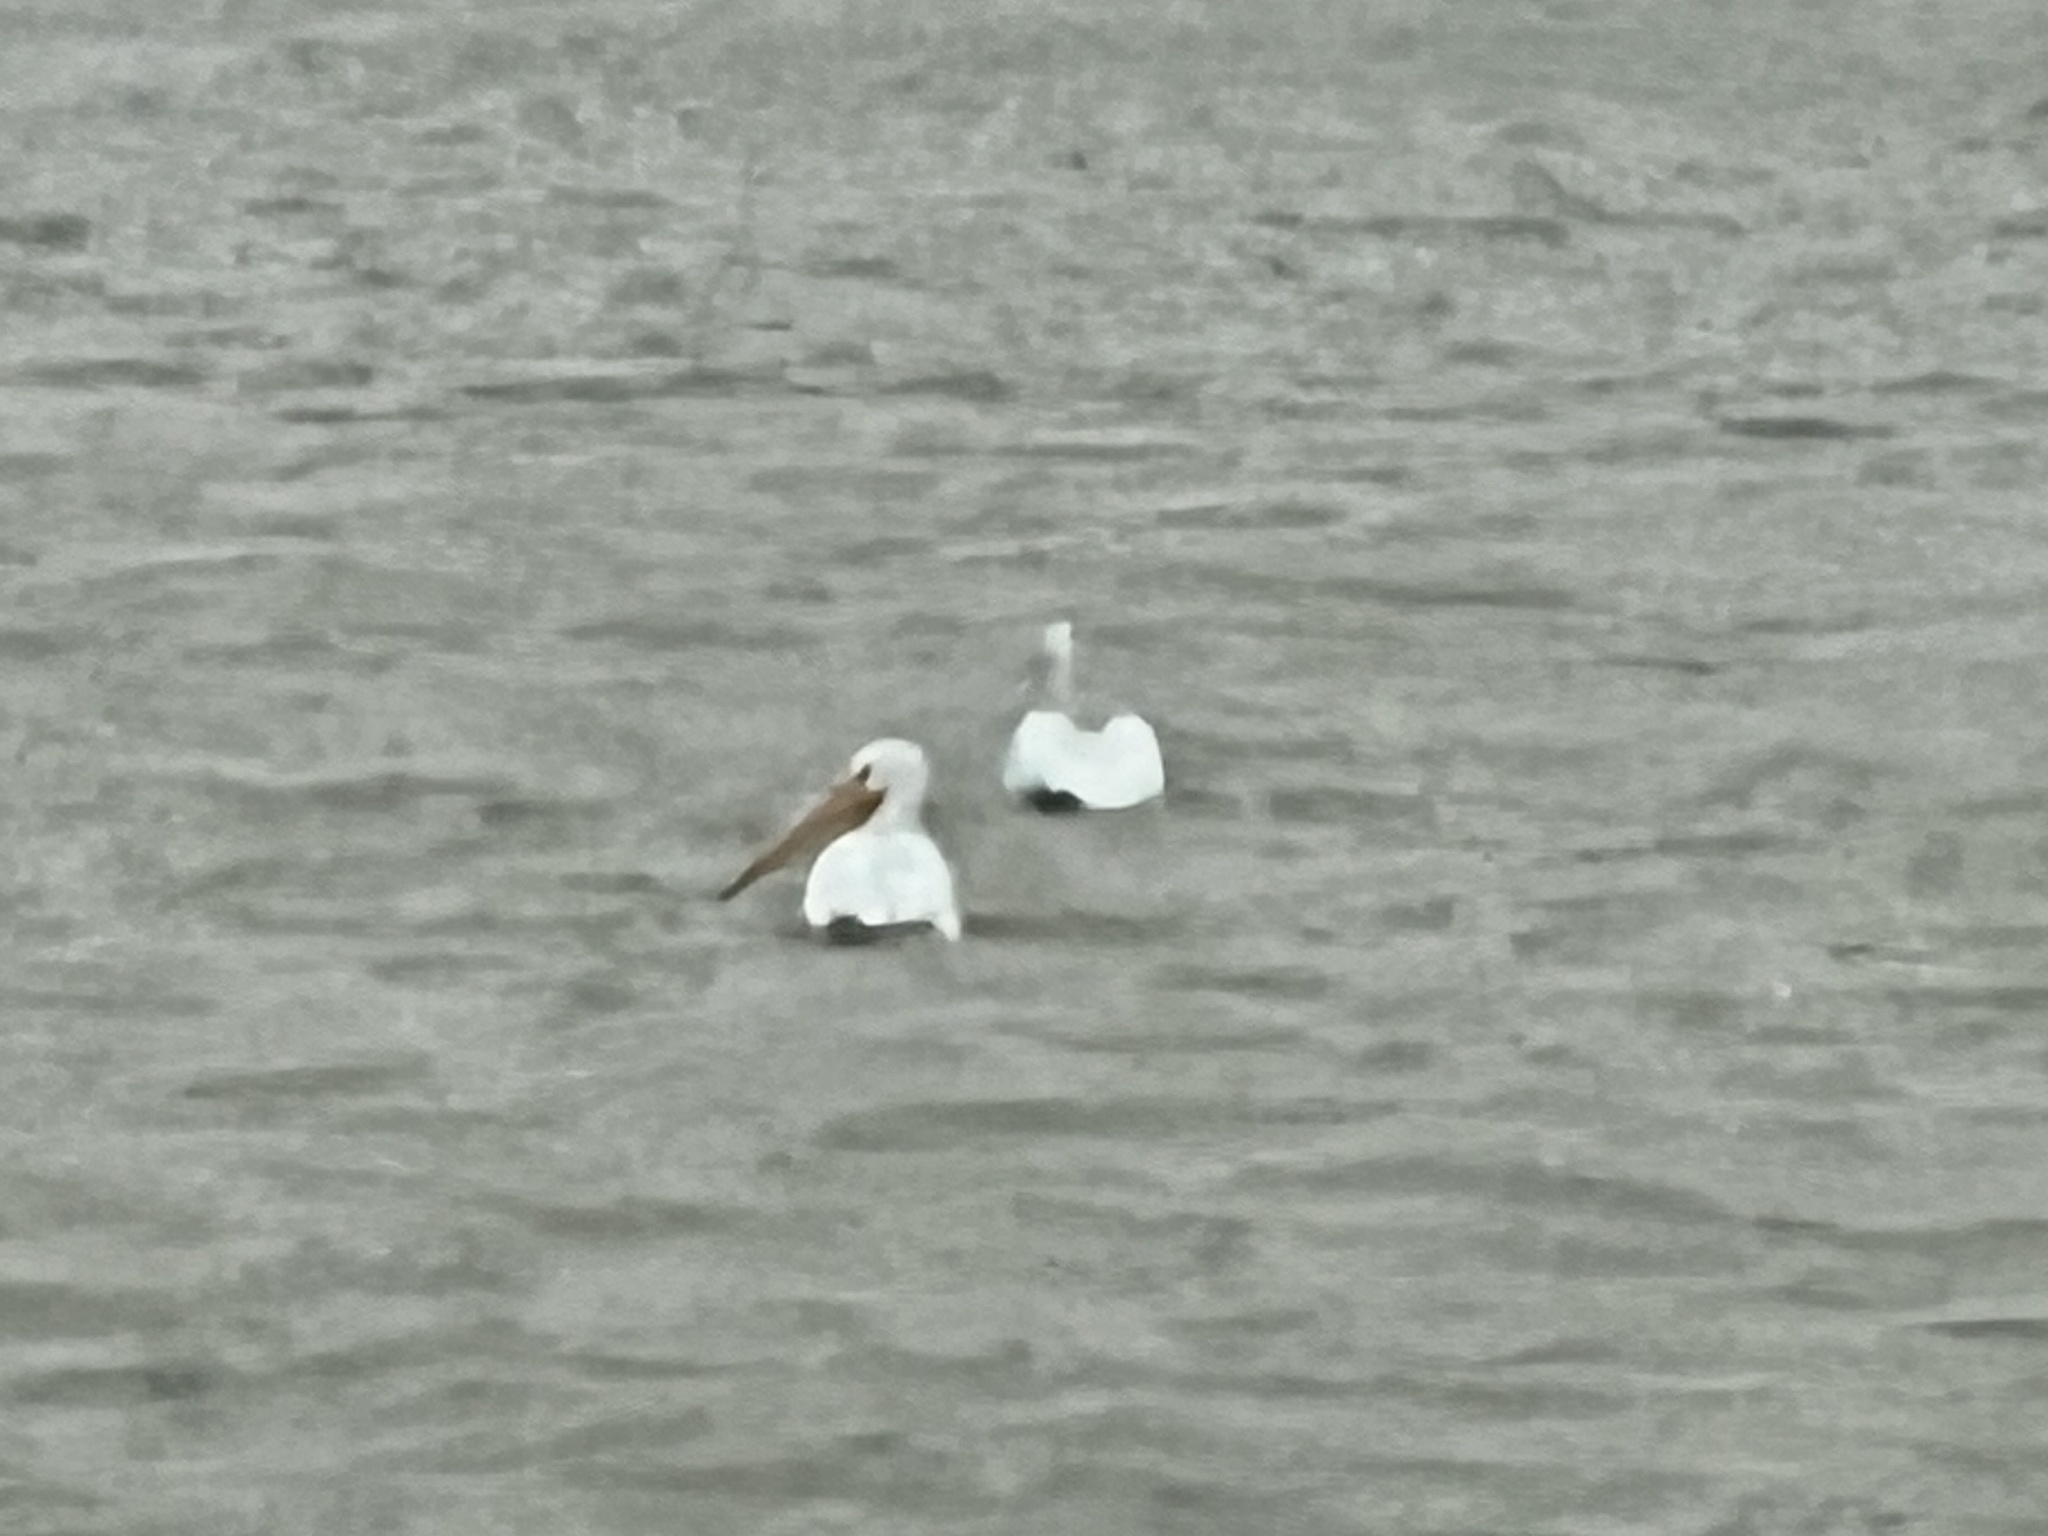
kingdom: Animalia
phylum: Chordata
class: Aves
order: Pelecaniformes
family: Pelecanidae
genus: Pelecanus
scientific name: Pelecanus erythrorhynchos
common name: American white pelican
